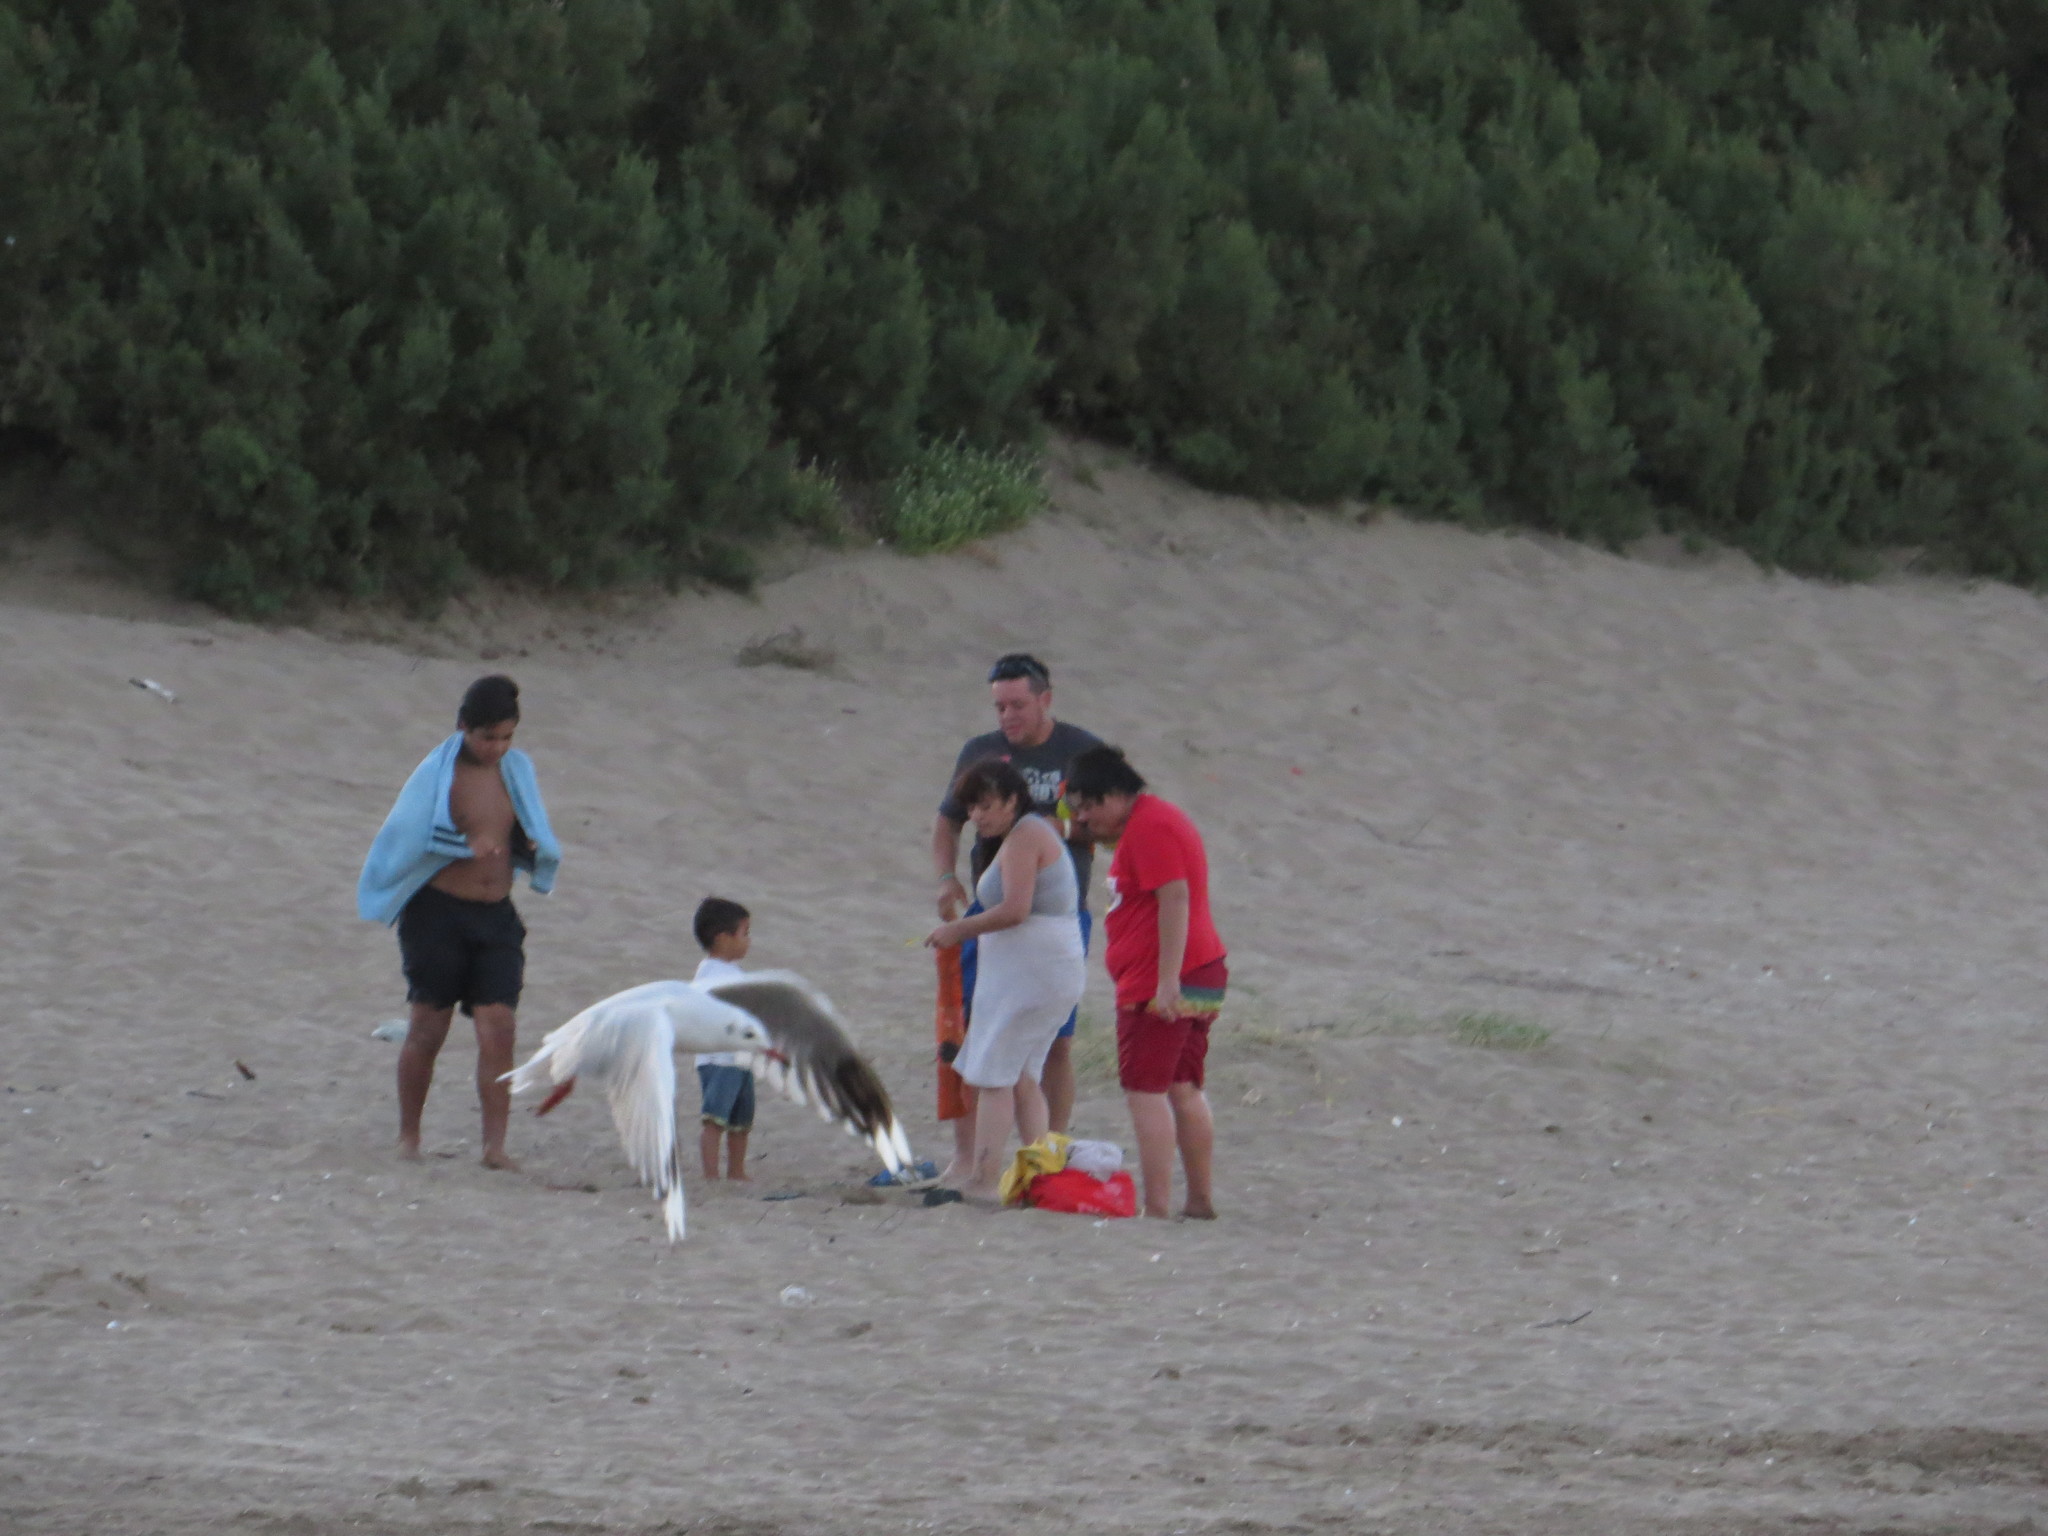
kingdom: Animalia
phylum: Chordata
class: Aves
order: Charadriiformes
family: Laridae
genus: Chroicocephalus
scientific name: Chroicocephalus maculipennis
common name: Brown-hooded gull
